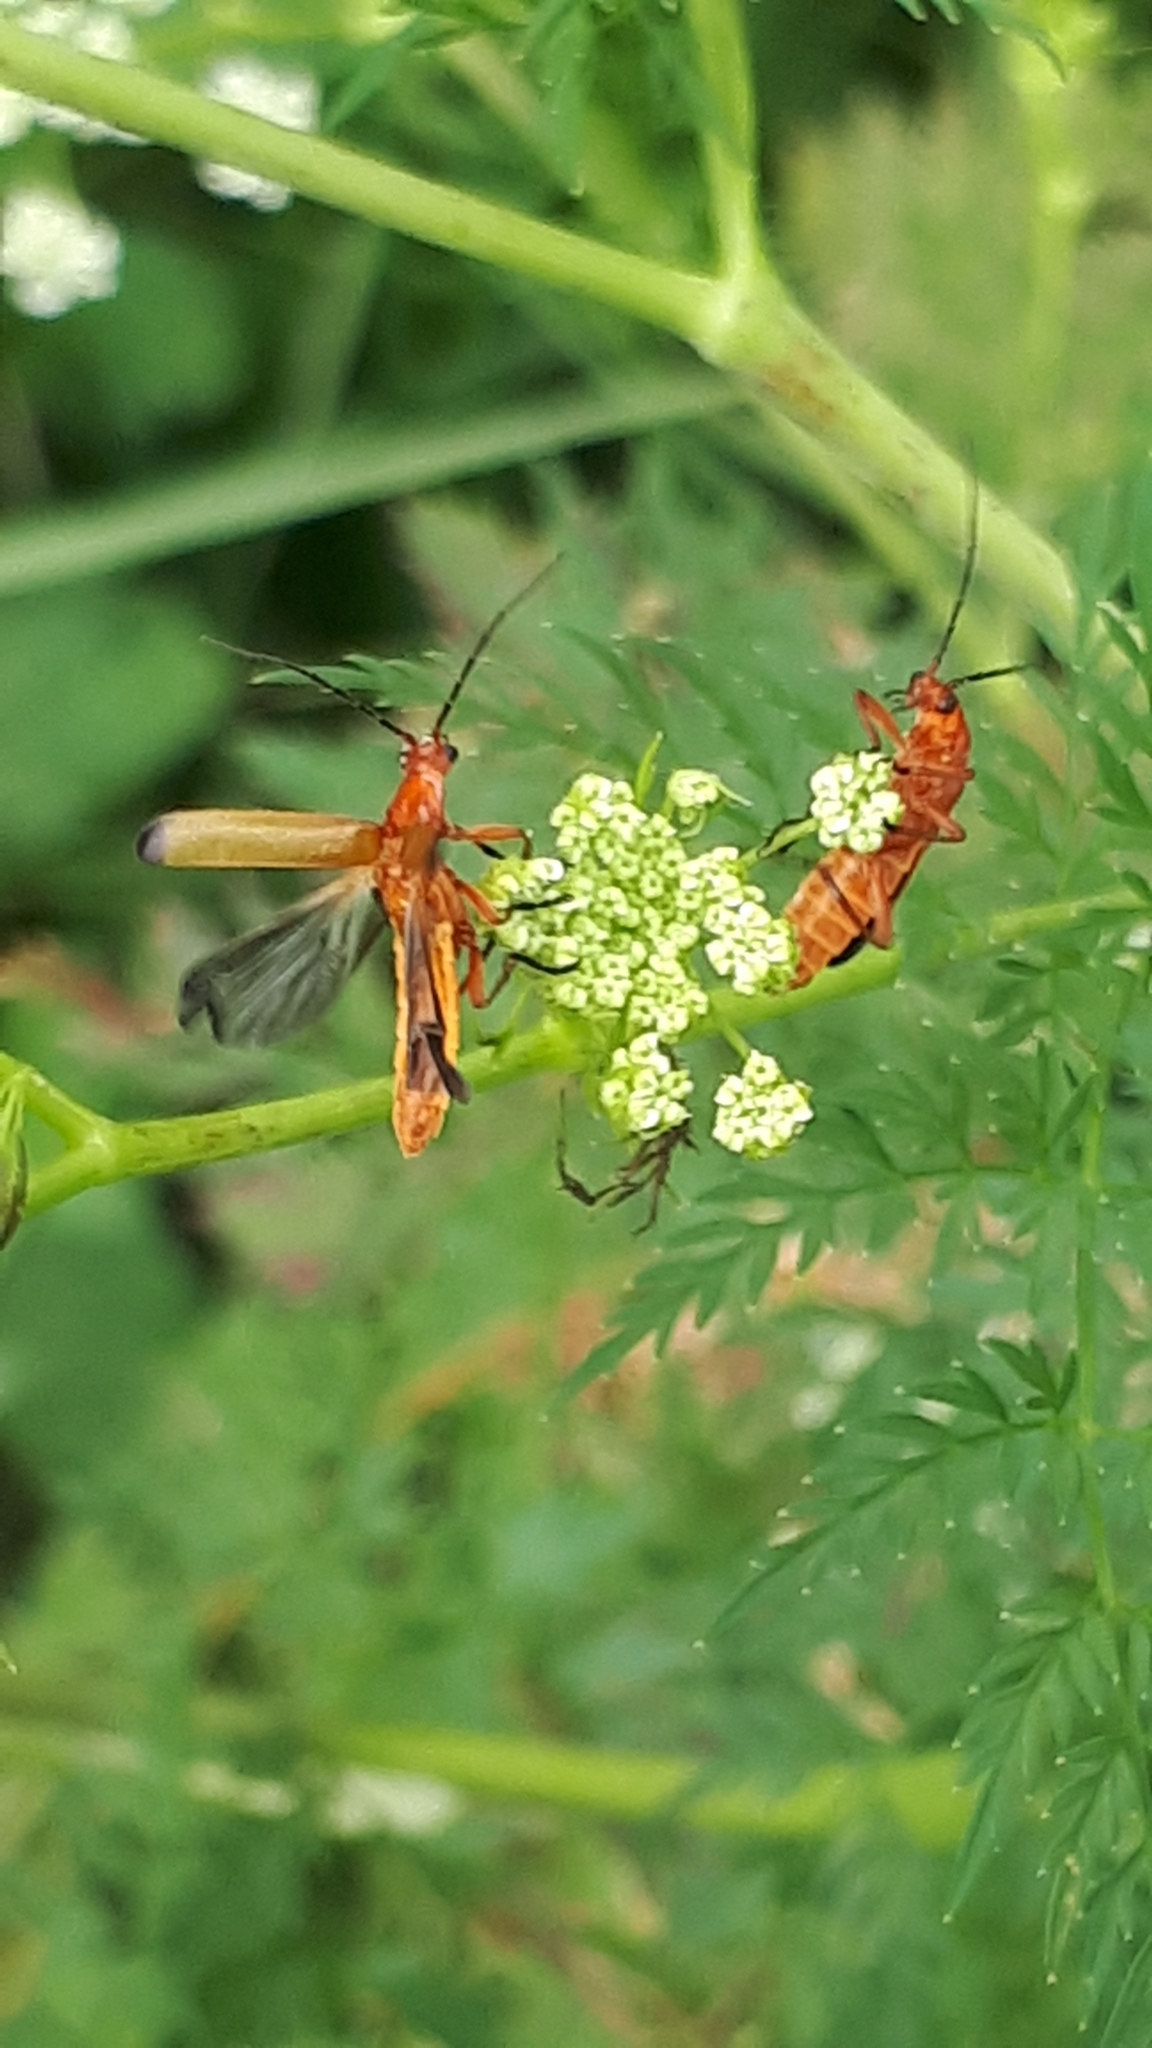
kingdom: Animalia
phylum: Arthropoda
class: Insecta
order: Coleoptera
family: Cantharidae
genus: Rhagonycha
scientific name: Rhagonycha fulva
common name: Common red soldier beetle
